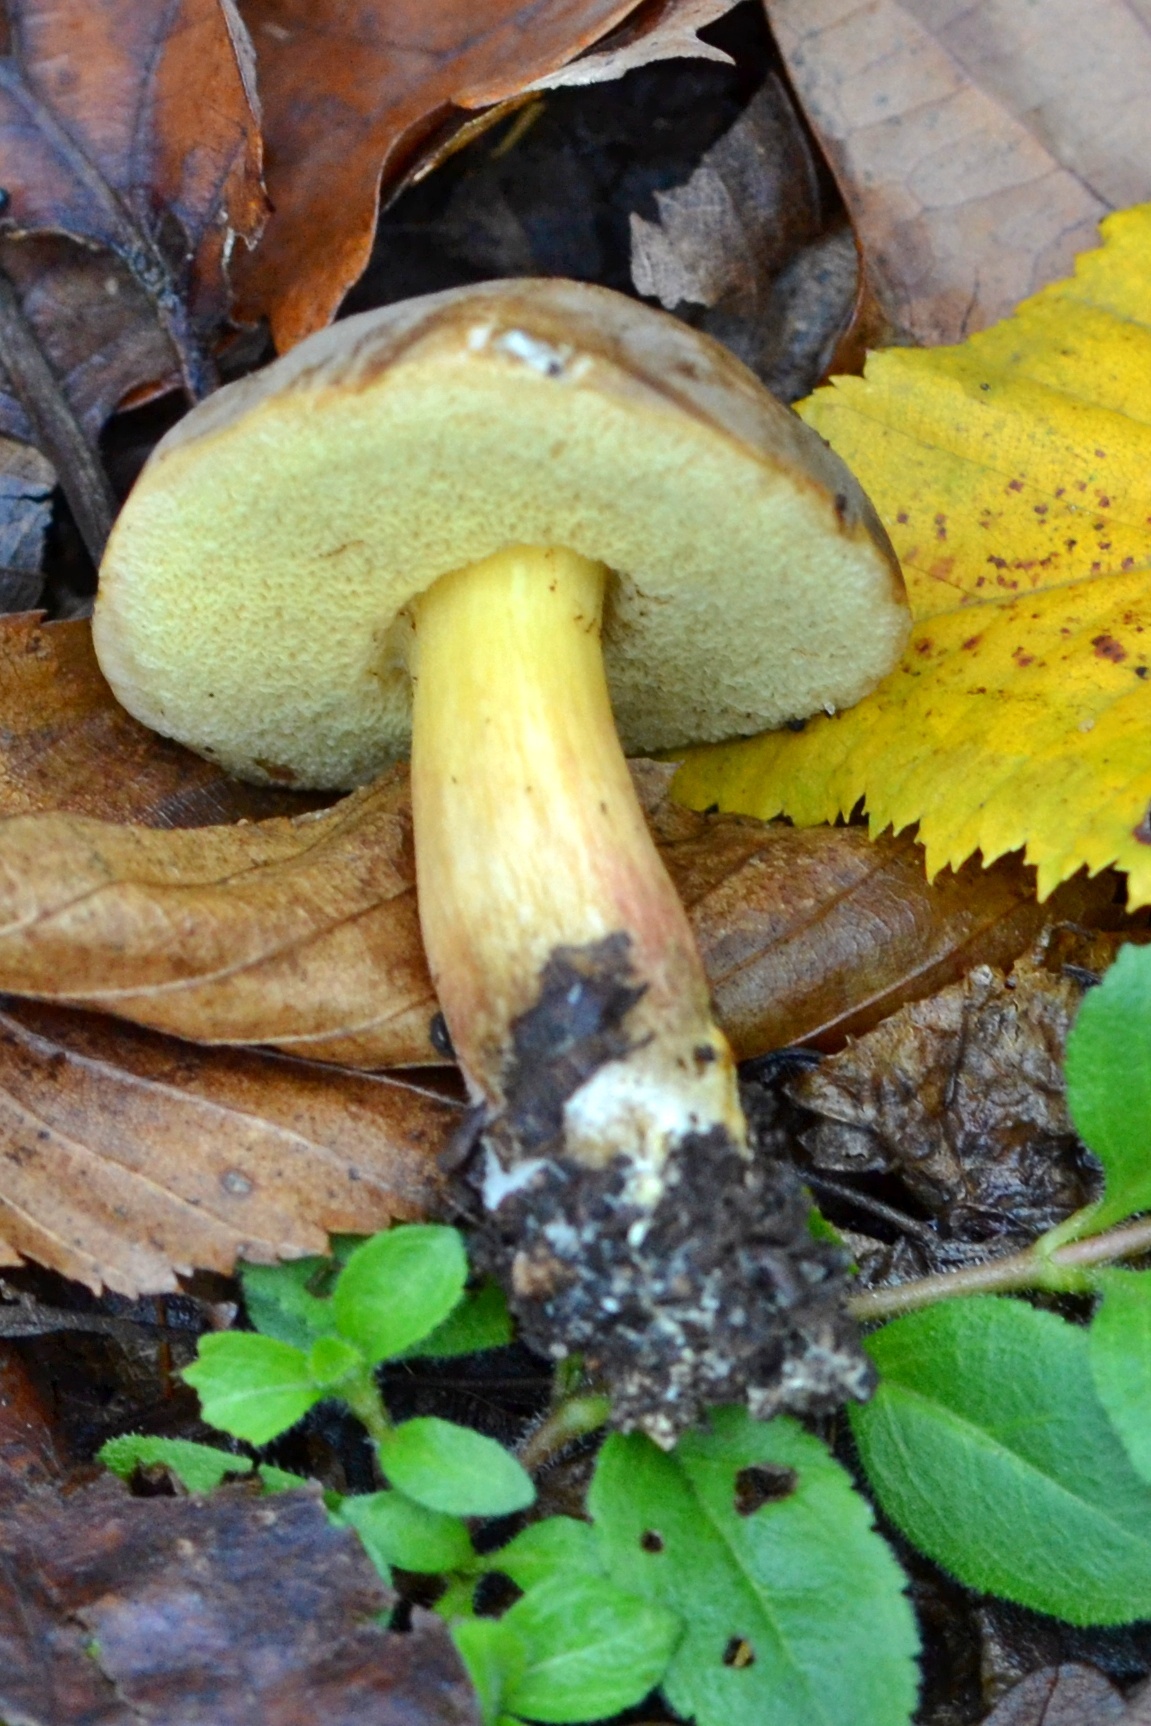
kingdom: Fungi
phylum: Basidiomycota
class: Agaricomycetes
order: Boletales
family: Boletaceae
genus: Xerocomellus
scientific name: Xerocomellus pruinatus
